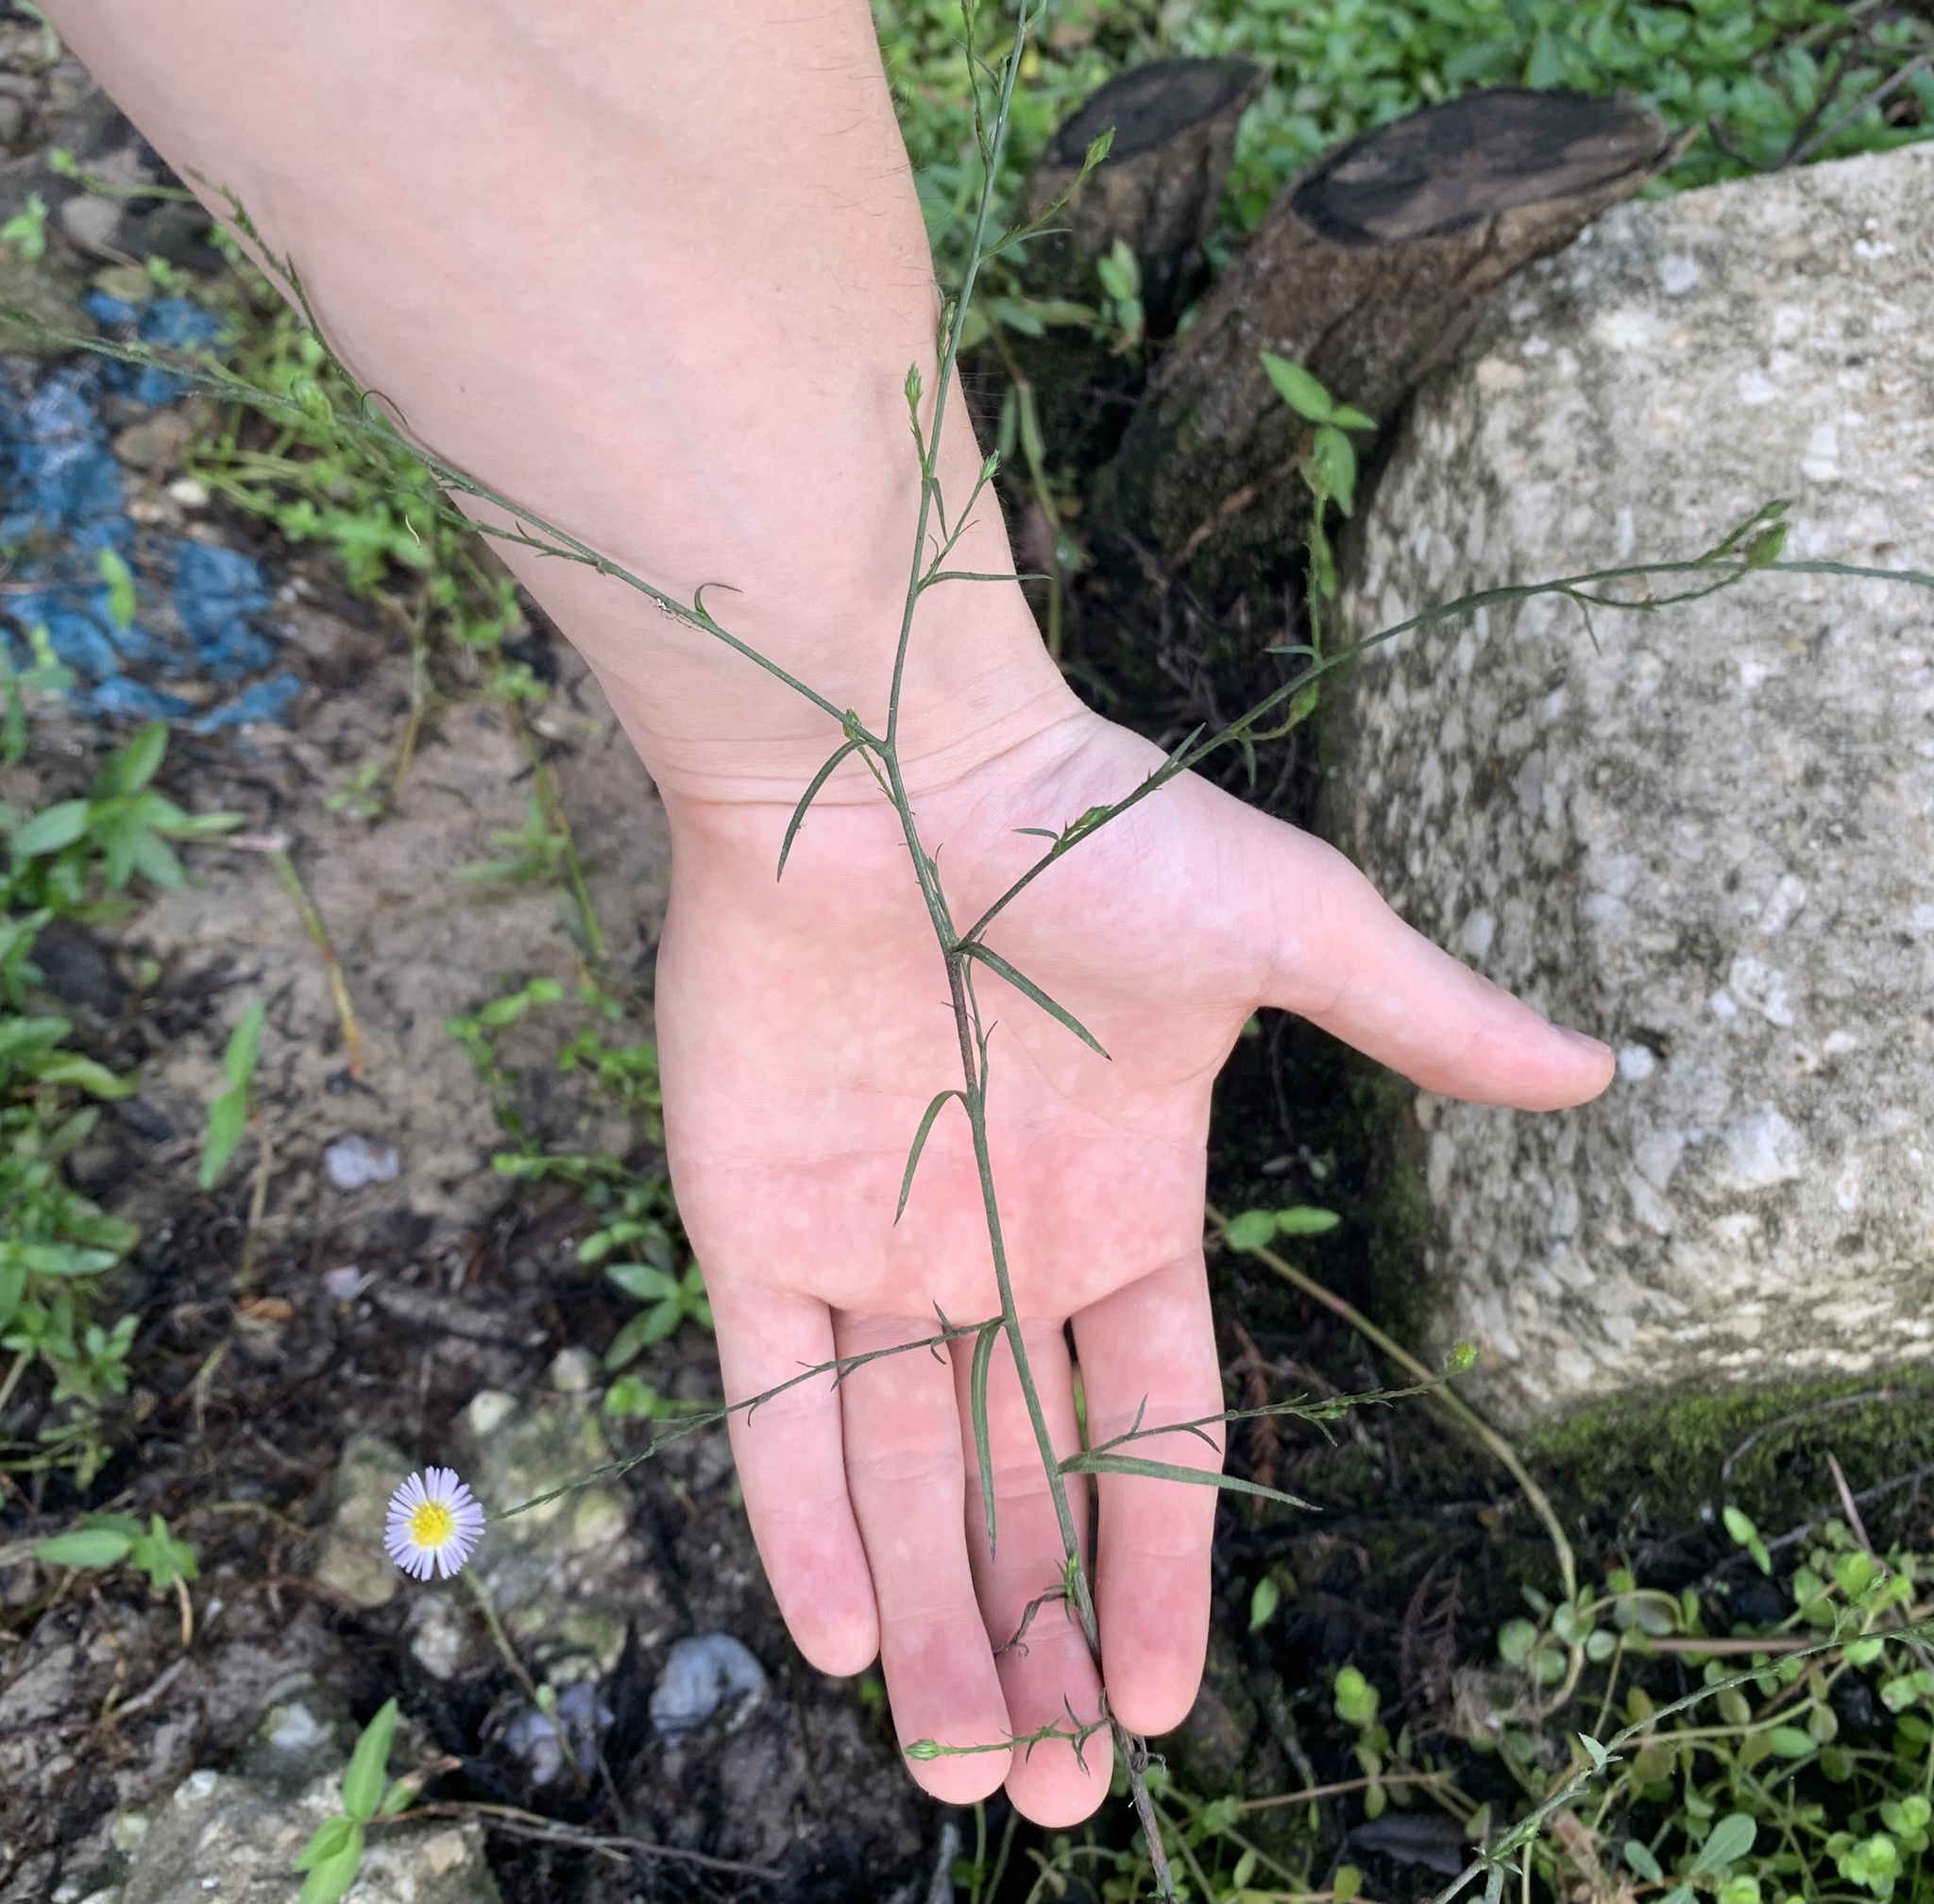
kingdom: Plantae
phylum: Tracheophyta
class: Magnoliopsida
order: Asterales
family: Asteraceae
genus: Symphyotrichum
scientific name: Symphyotrichum subulatum
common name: Annual saltmarsh aster
